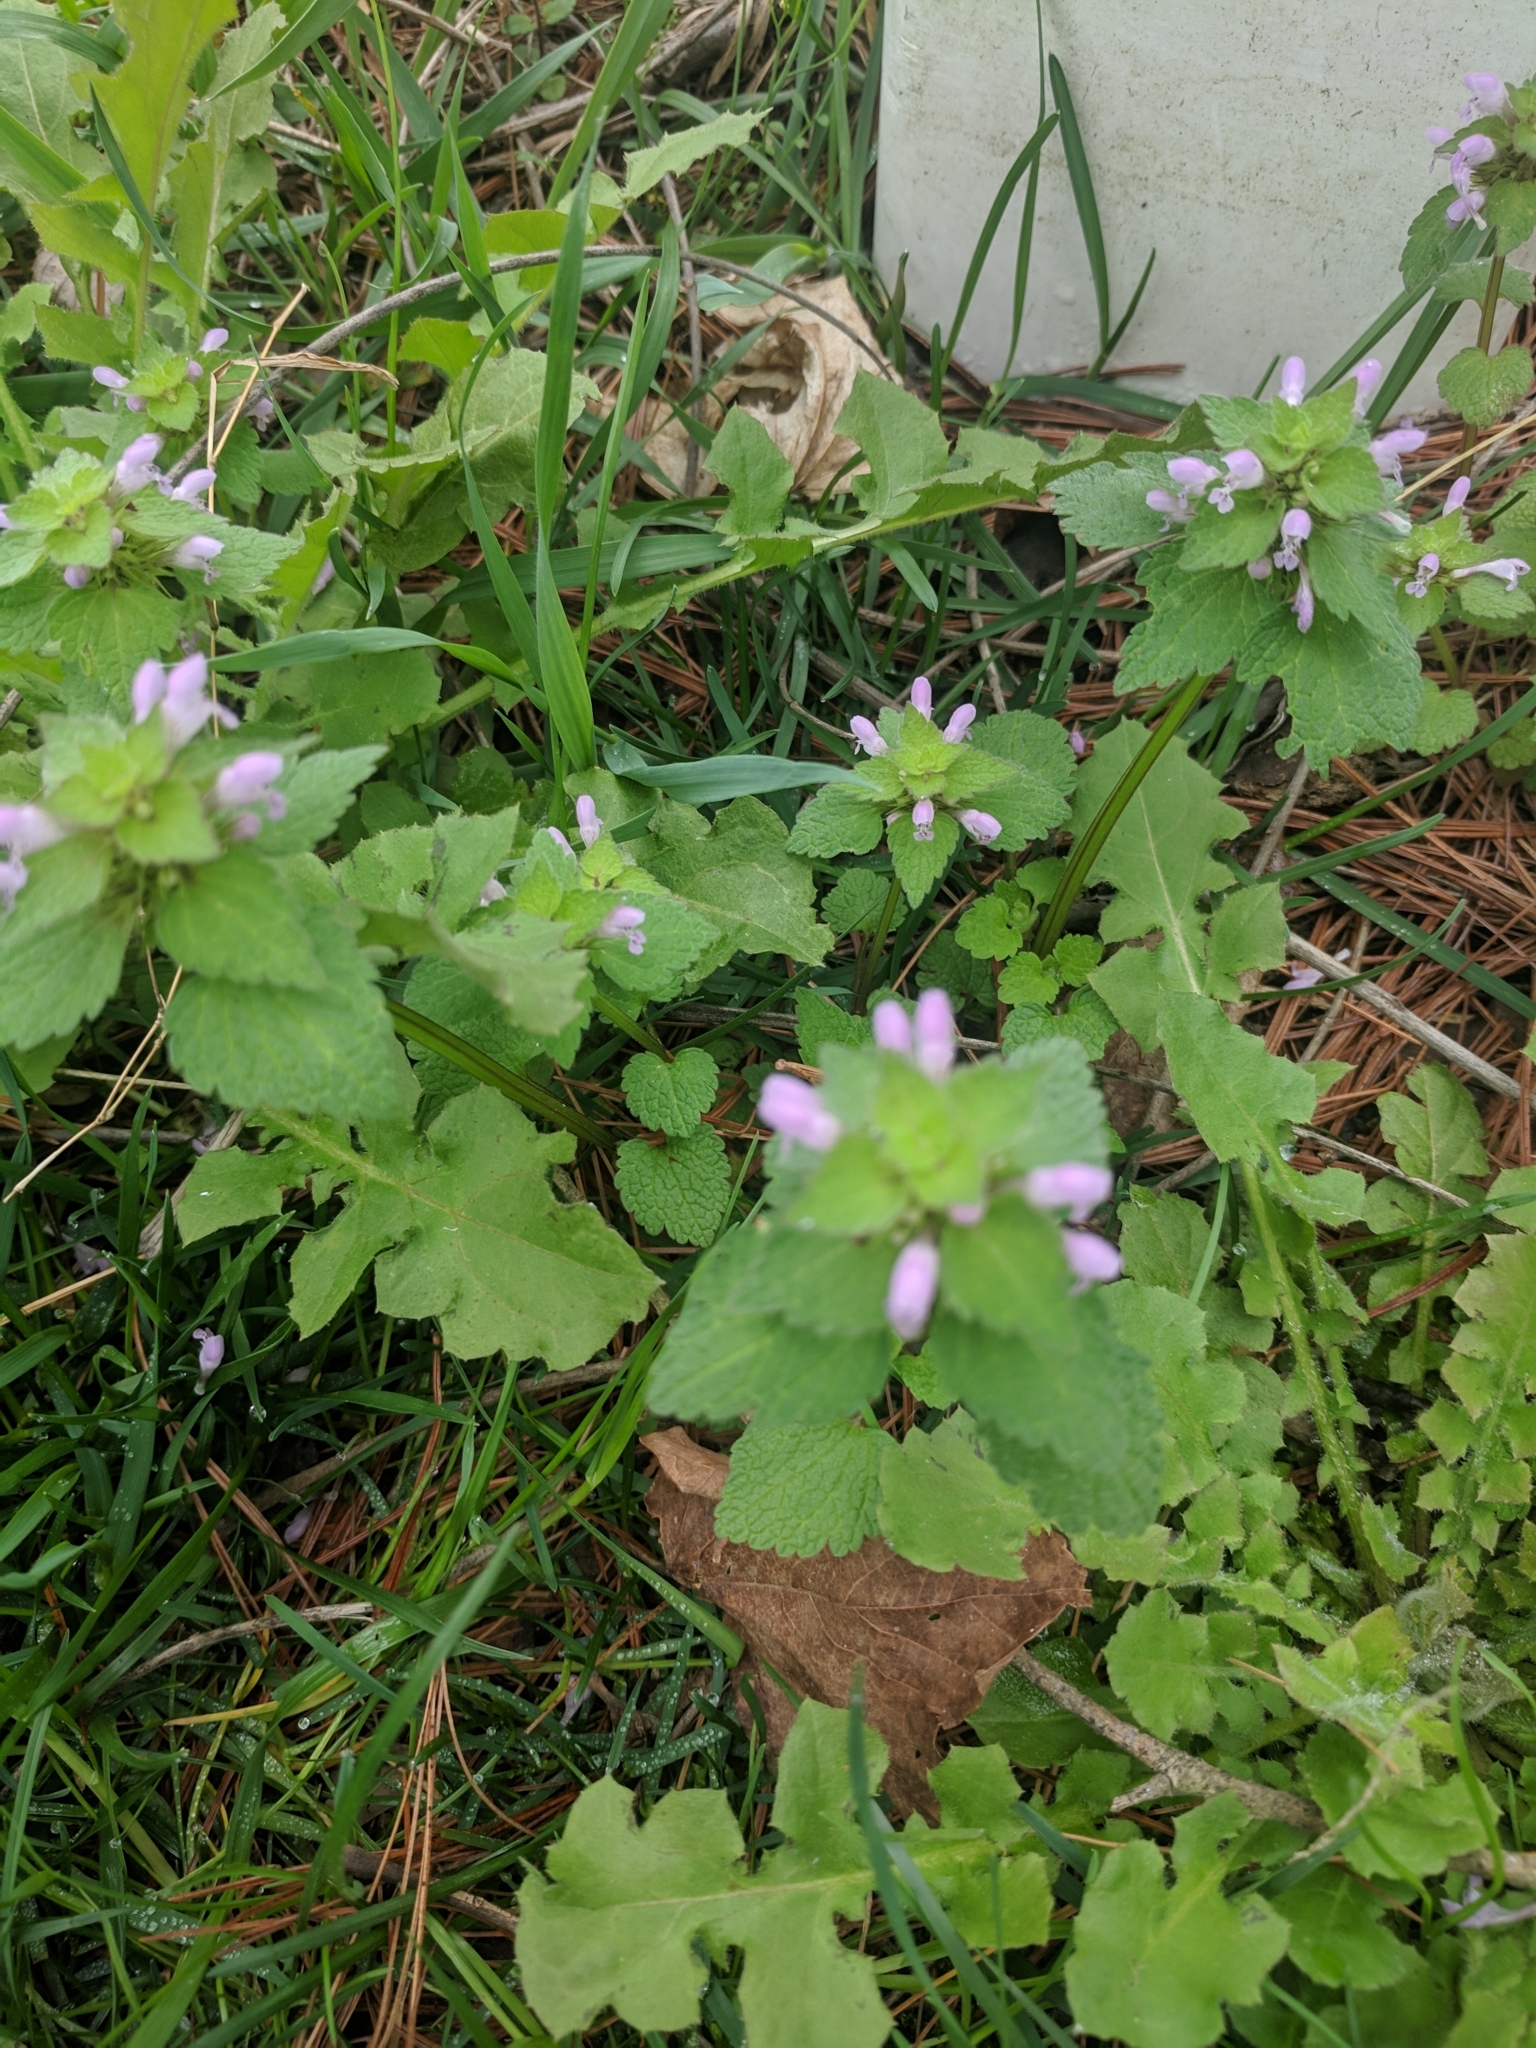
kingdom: Plantae
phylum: Tracheophyta
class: Magnoliopsida
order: Lamiales
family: Lamiaceae
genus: Lamium
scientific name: Lamium purpureum
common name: Red dead-nettle
